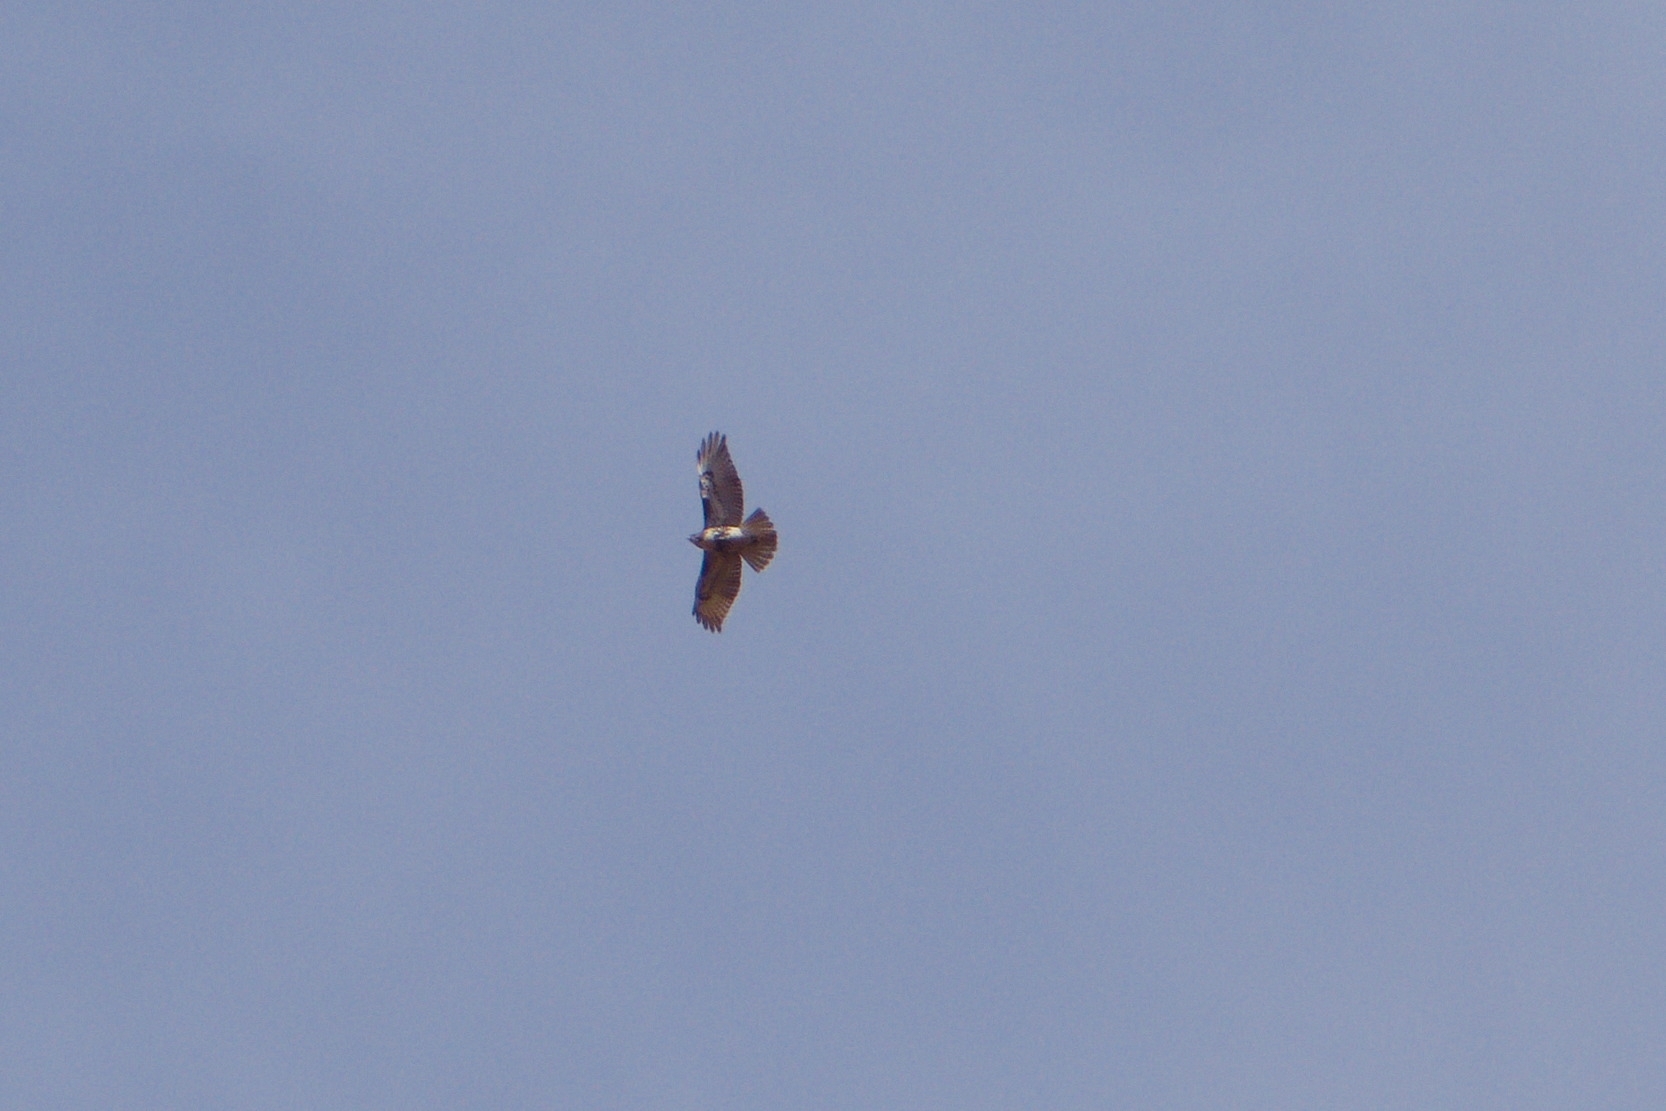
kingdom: Animalia
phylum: Chordata
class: Aves
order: Accipitriformes
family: Accipitridae
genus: Buteo
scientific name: Buteo jamaicensis
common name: Red-tailed hawk
